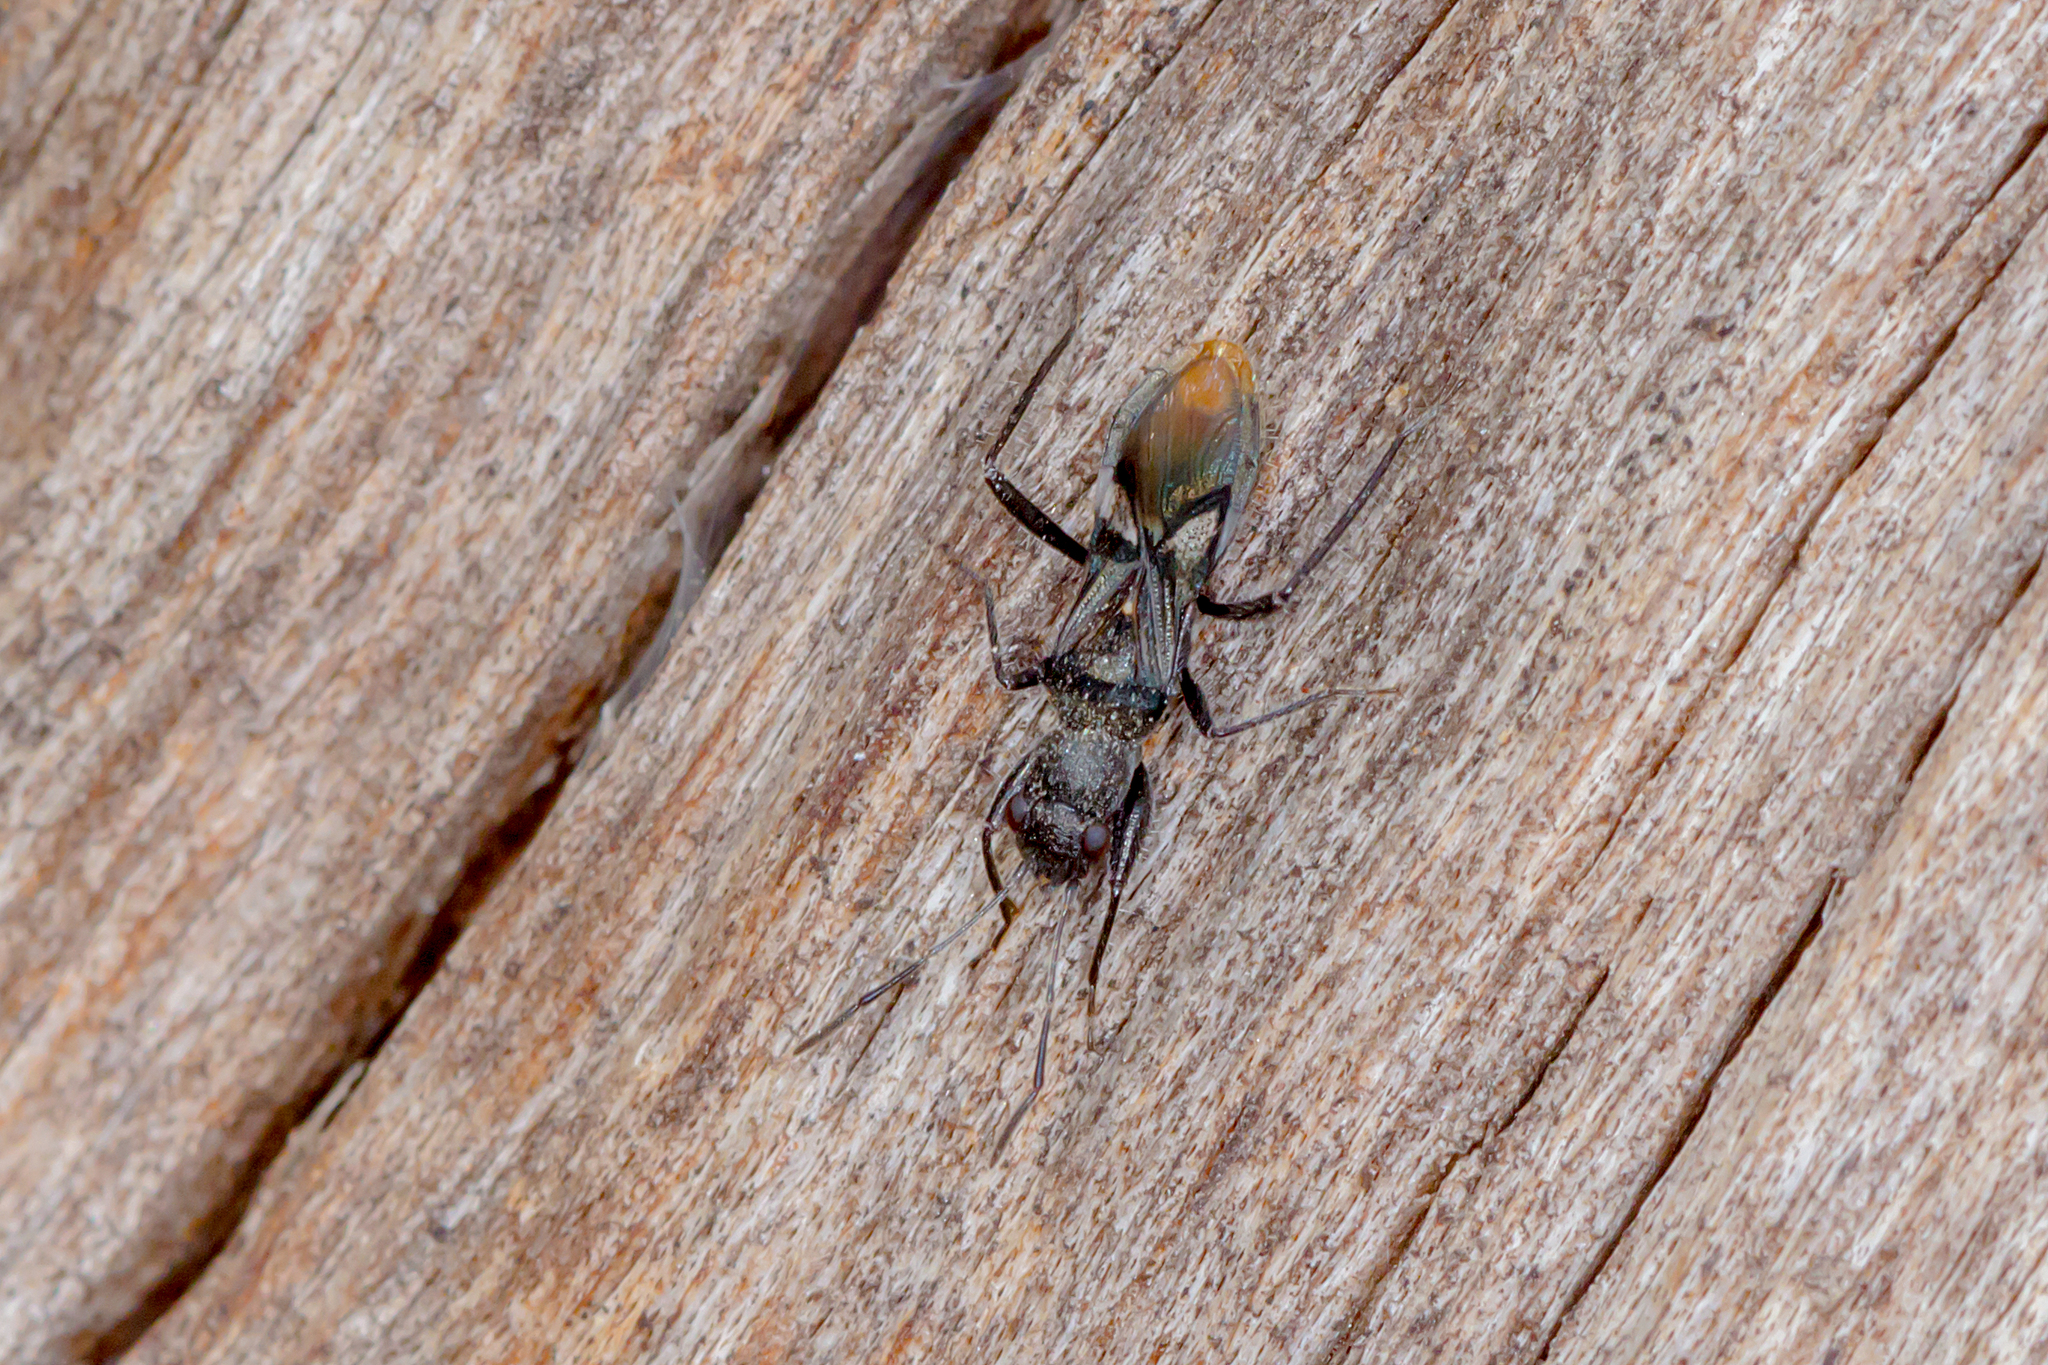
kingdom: Animalia
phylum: Arthropoda
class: Insecta
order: Hemiptera
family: Rhyparochromidae
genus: Daerlac
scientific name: Daerlac apicalis
